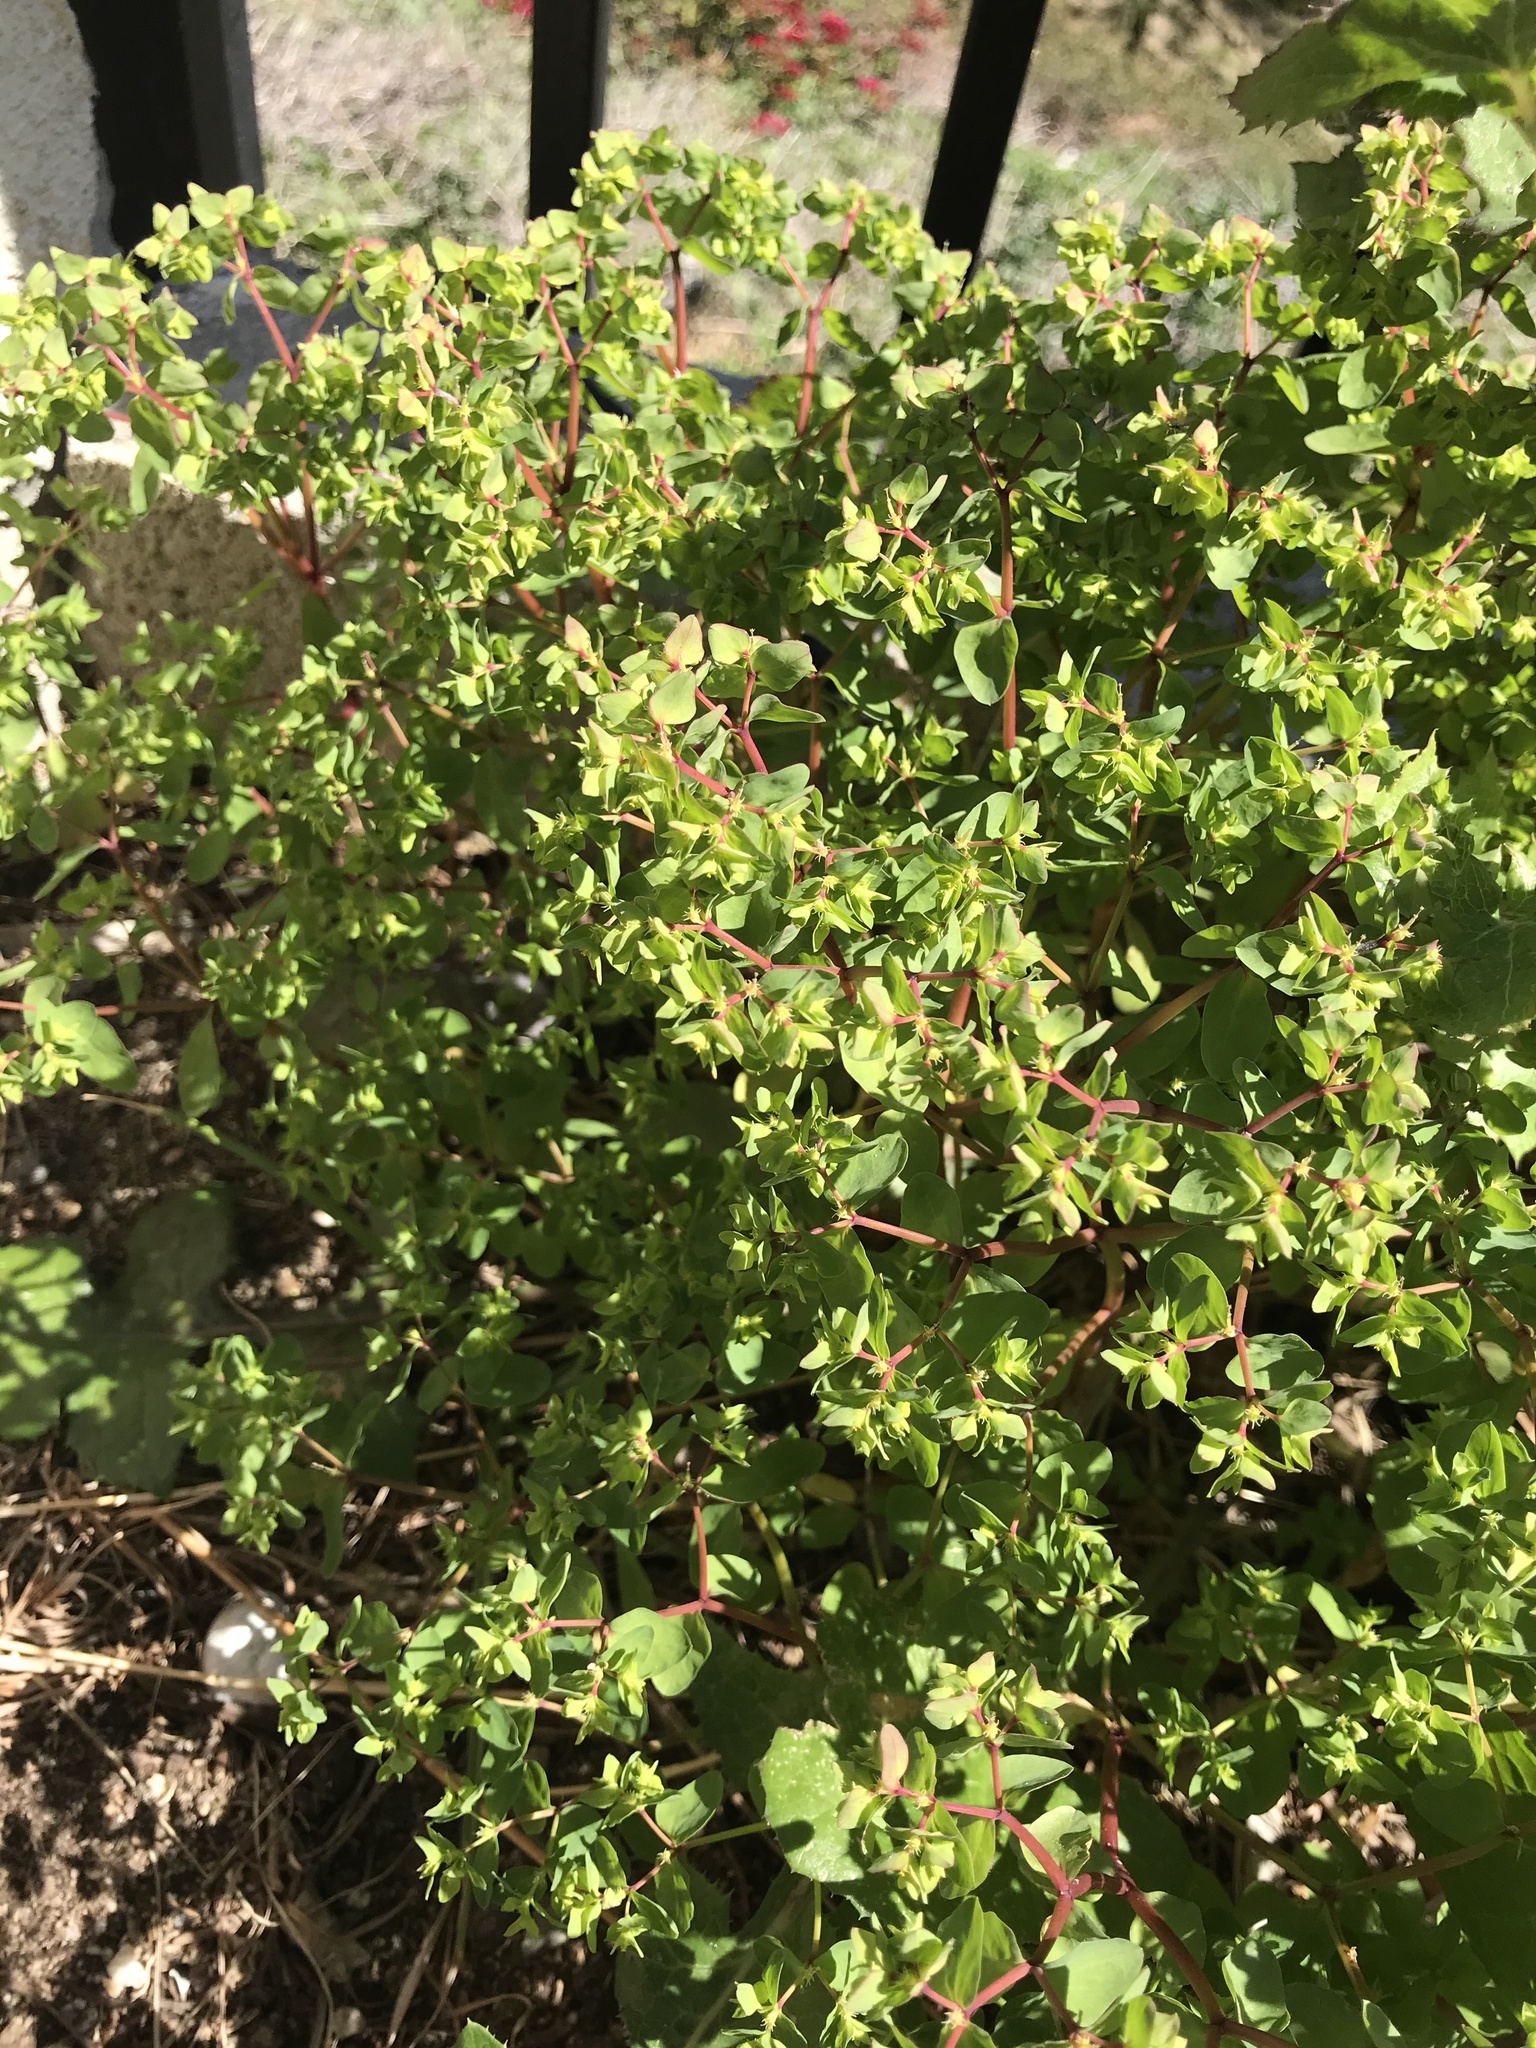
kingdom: Plantae
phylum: Tracheophyta
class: Magnoliopsida
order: Malpighiales
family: Euphorbiaceae
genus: Euphorbia
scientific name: Euphorbia peplus
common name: Petty spurge
